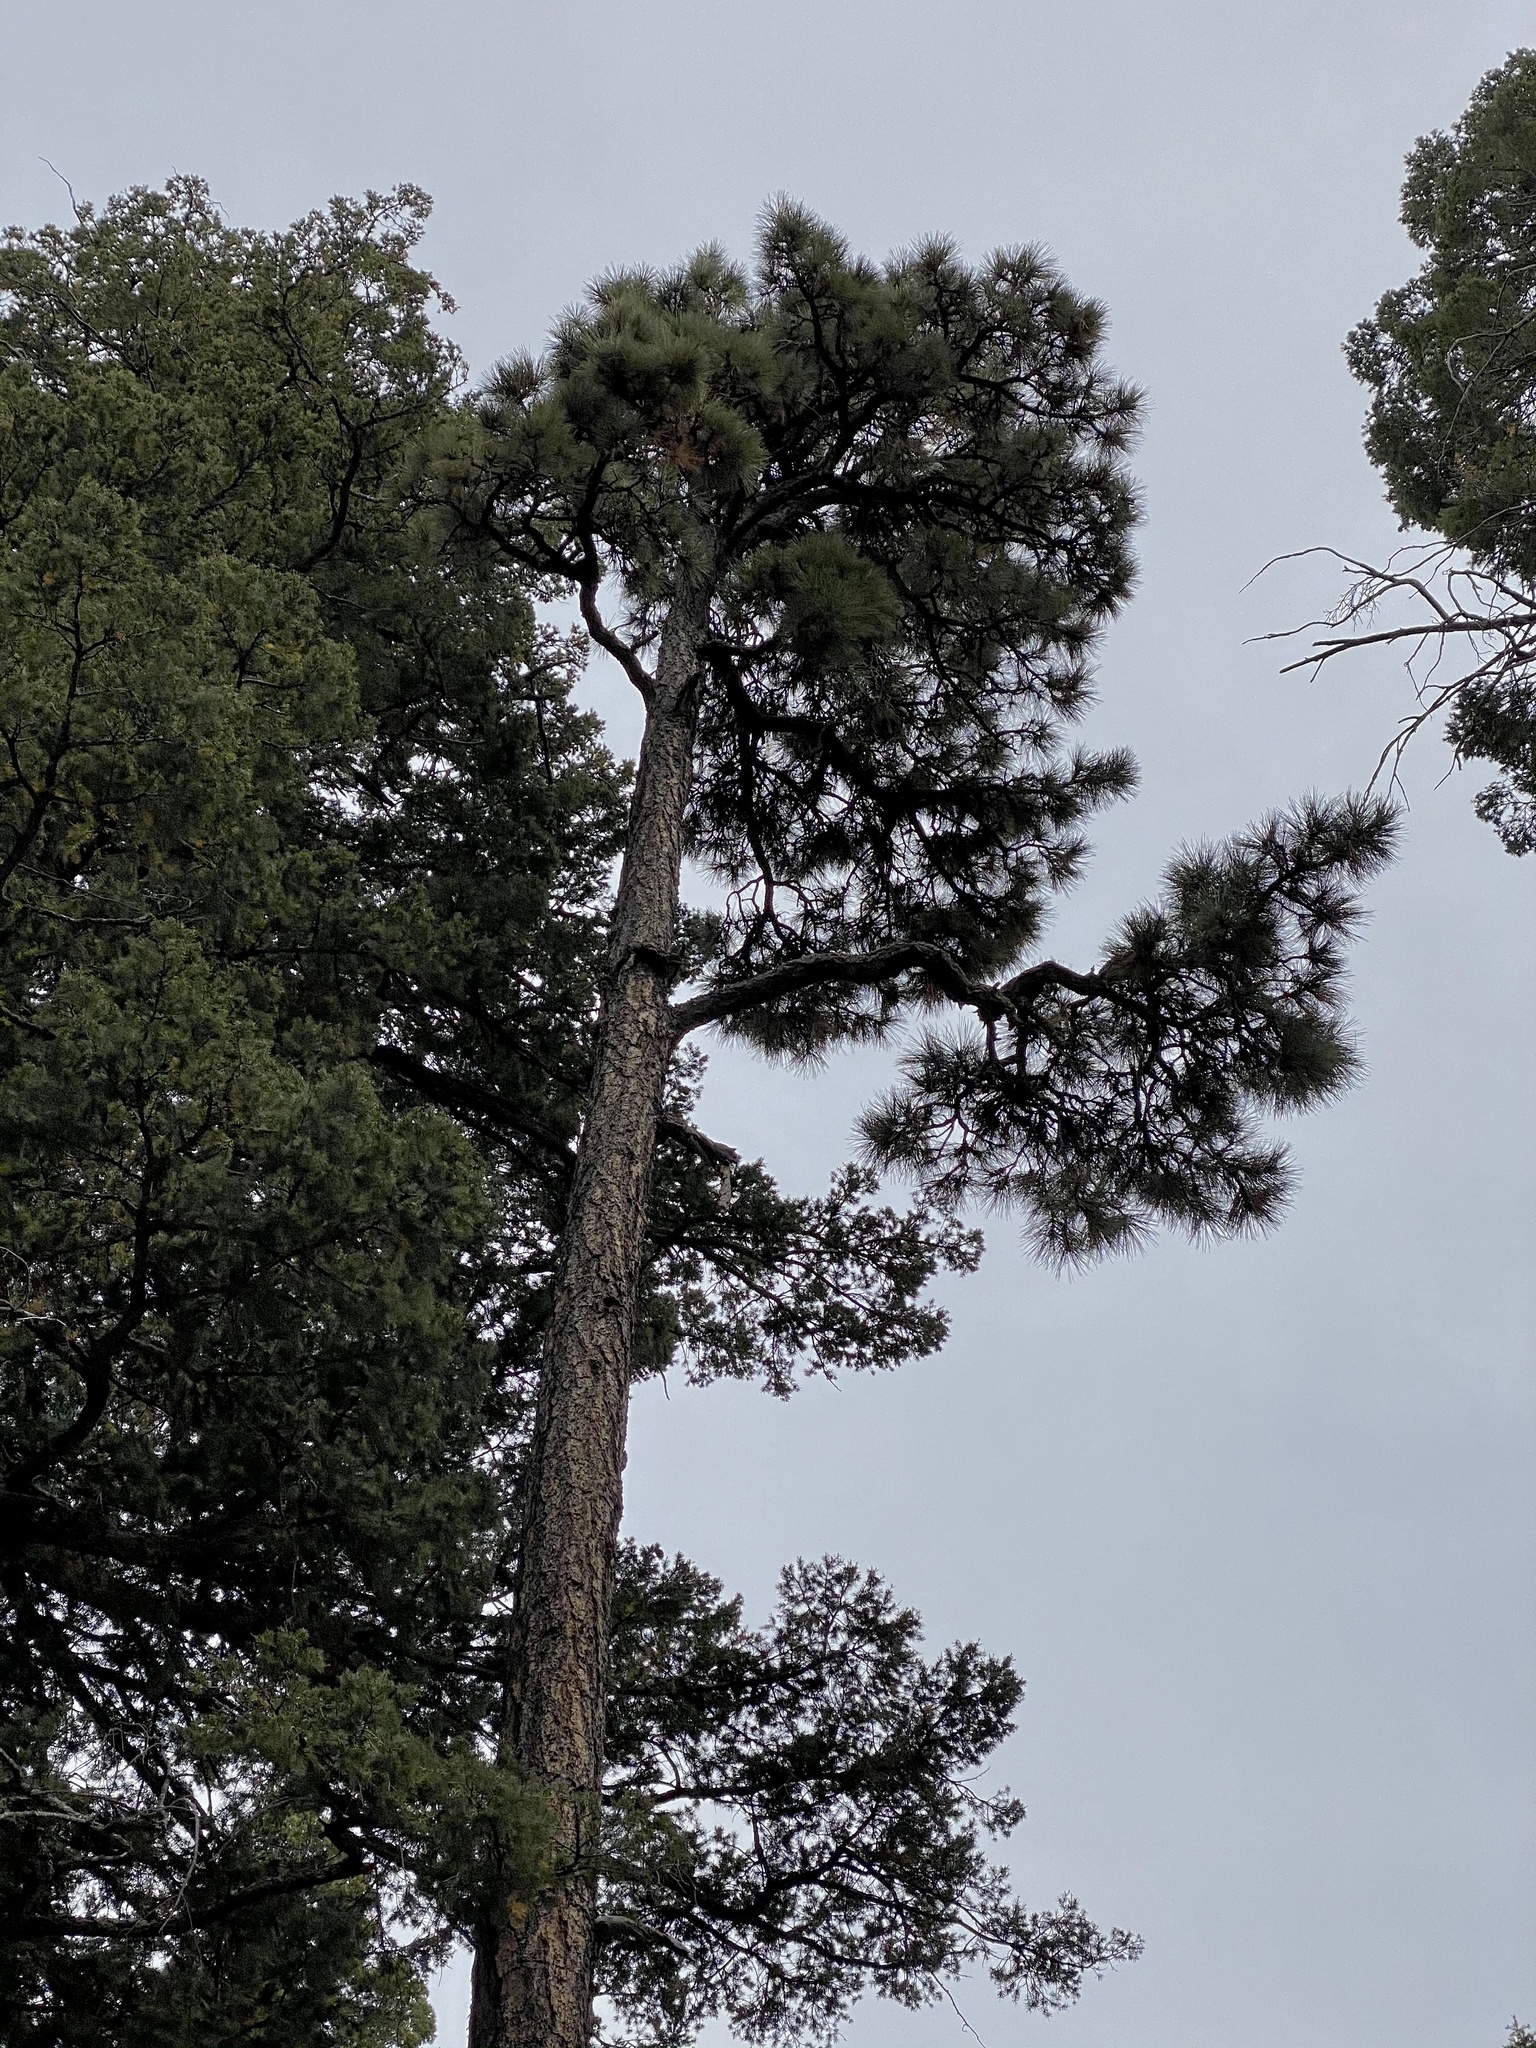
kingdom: Plantae
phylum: Tracheophyta
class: Pinopsida
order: Pinales
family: Pinaceae
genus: Pinus
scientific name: Pinus ponderosa
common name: Western yellow-pine
